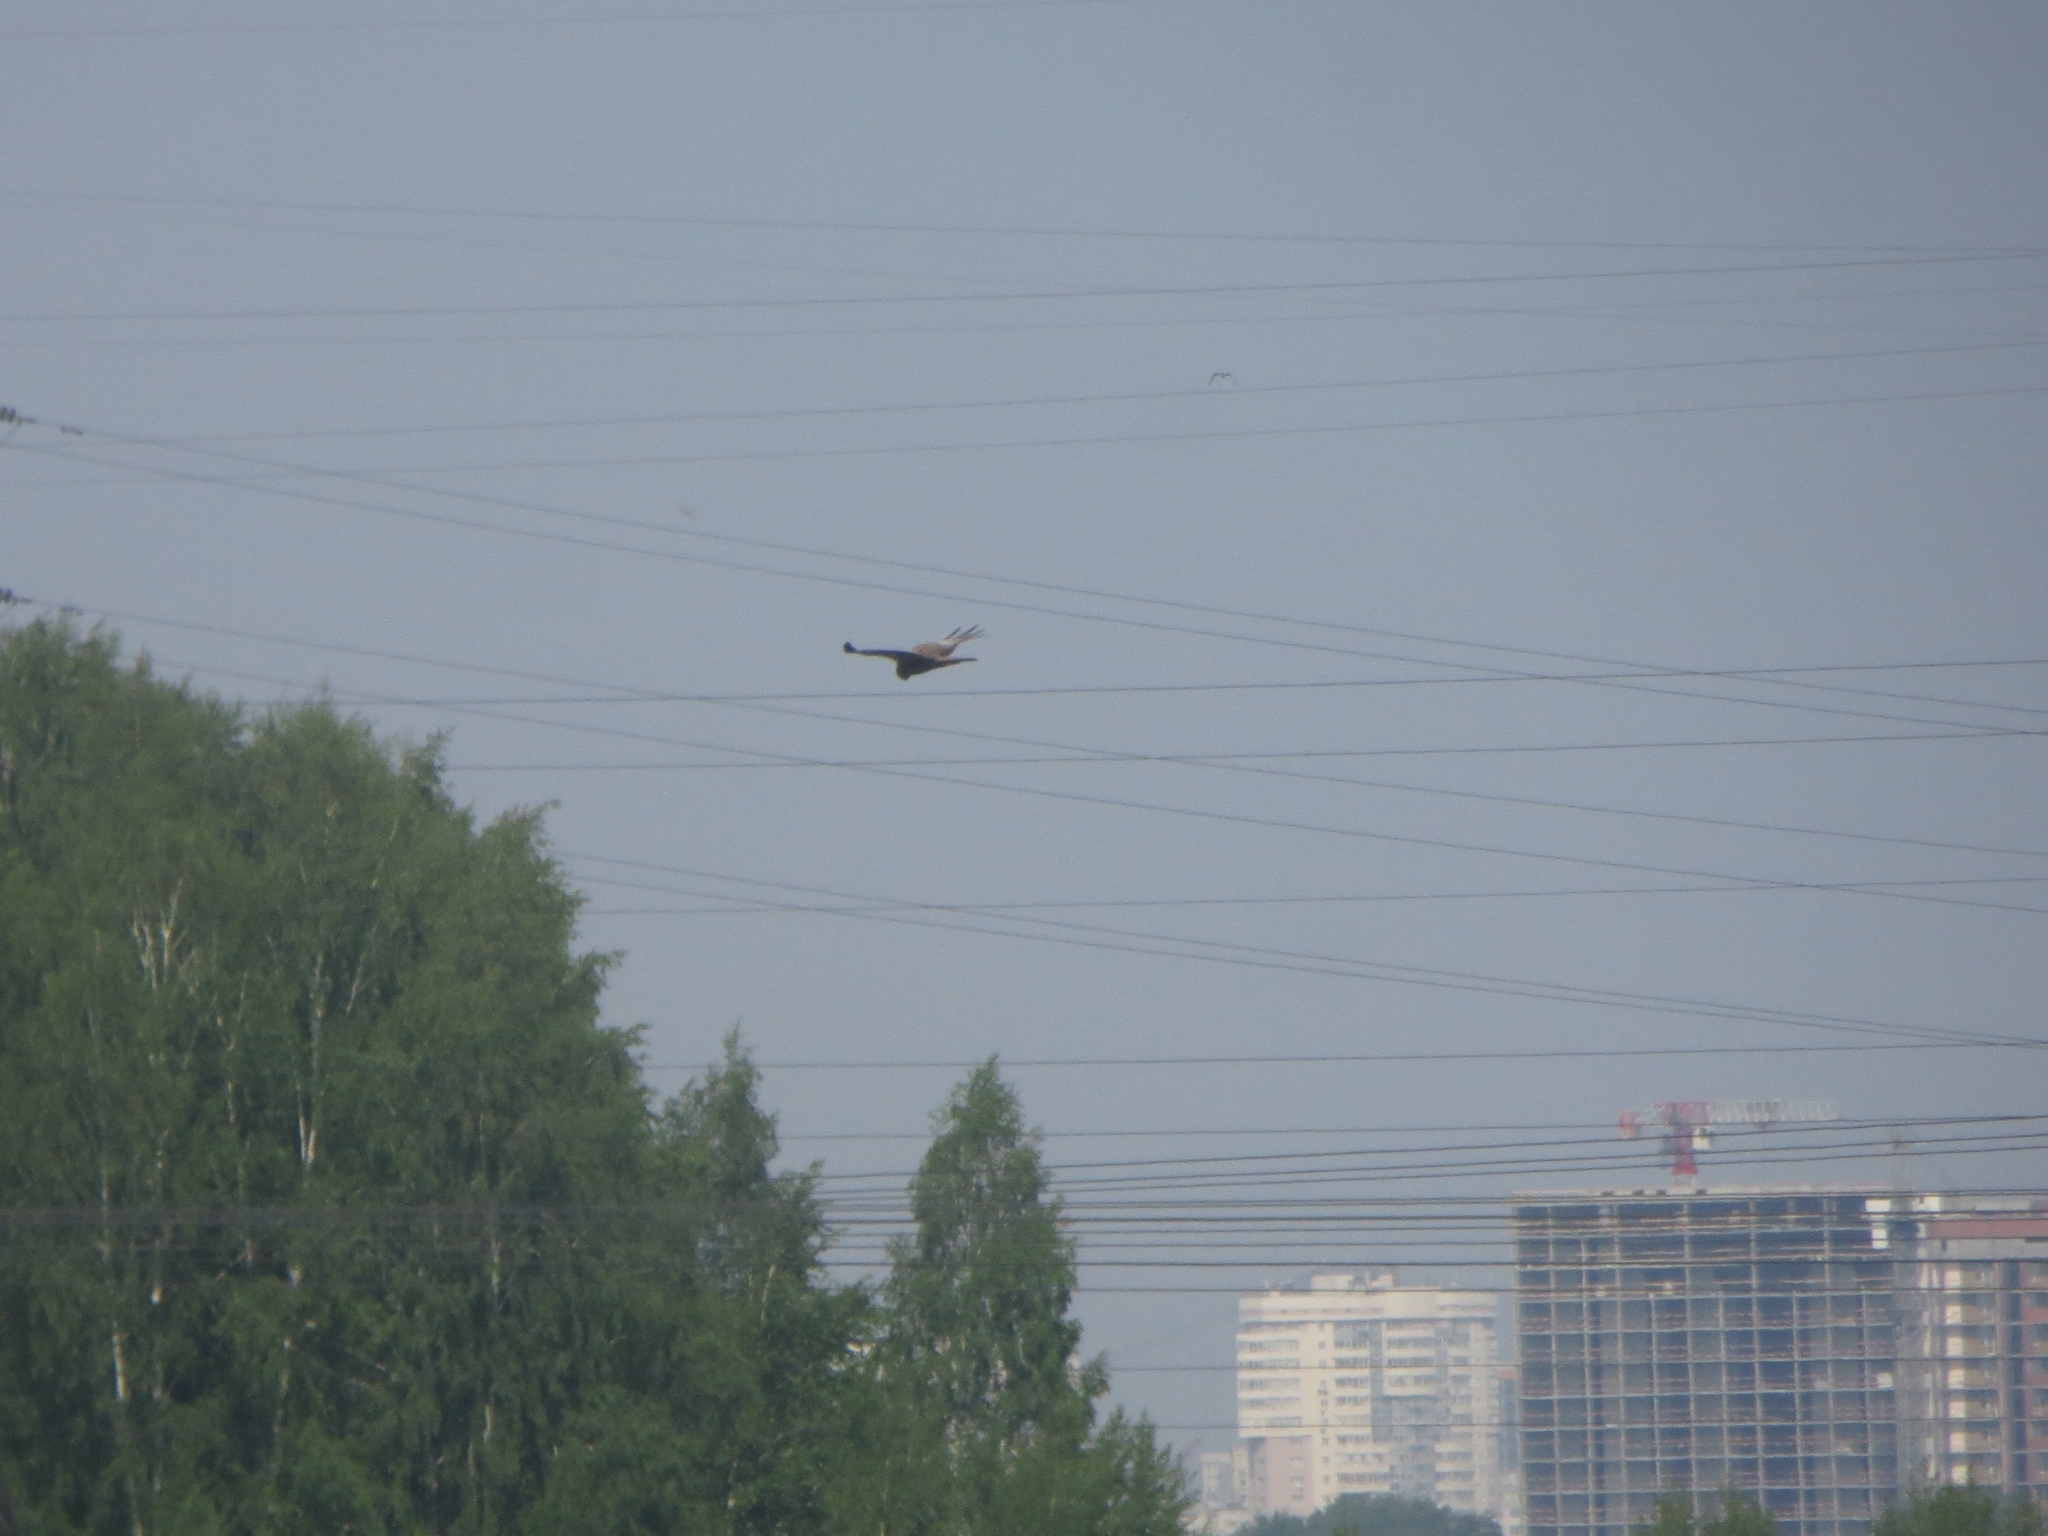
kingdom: Animalia
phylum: Chordata
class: Aves
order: Accipitriformes
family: Accipitridae
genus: Circus
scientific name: Circus aeruginosus
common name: Western marsh harrier
